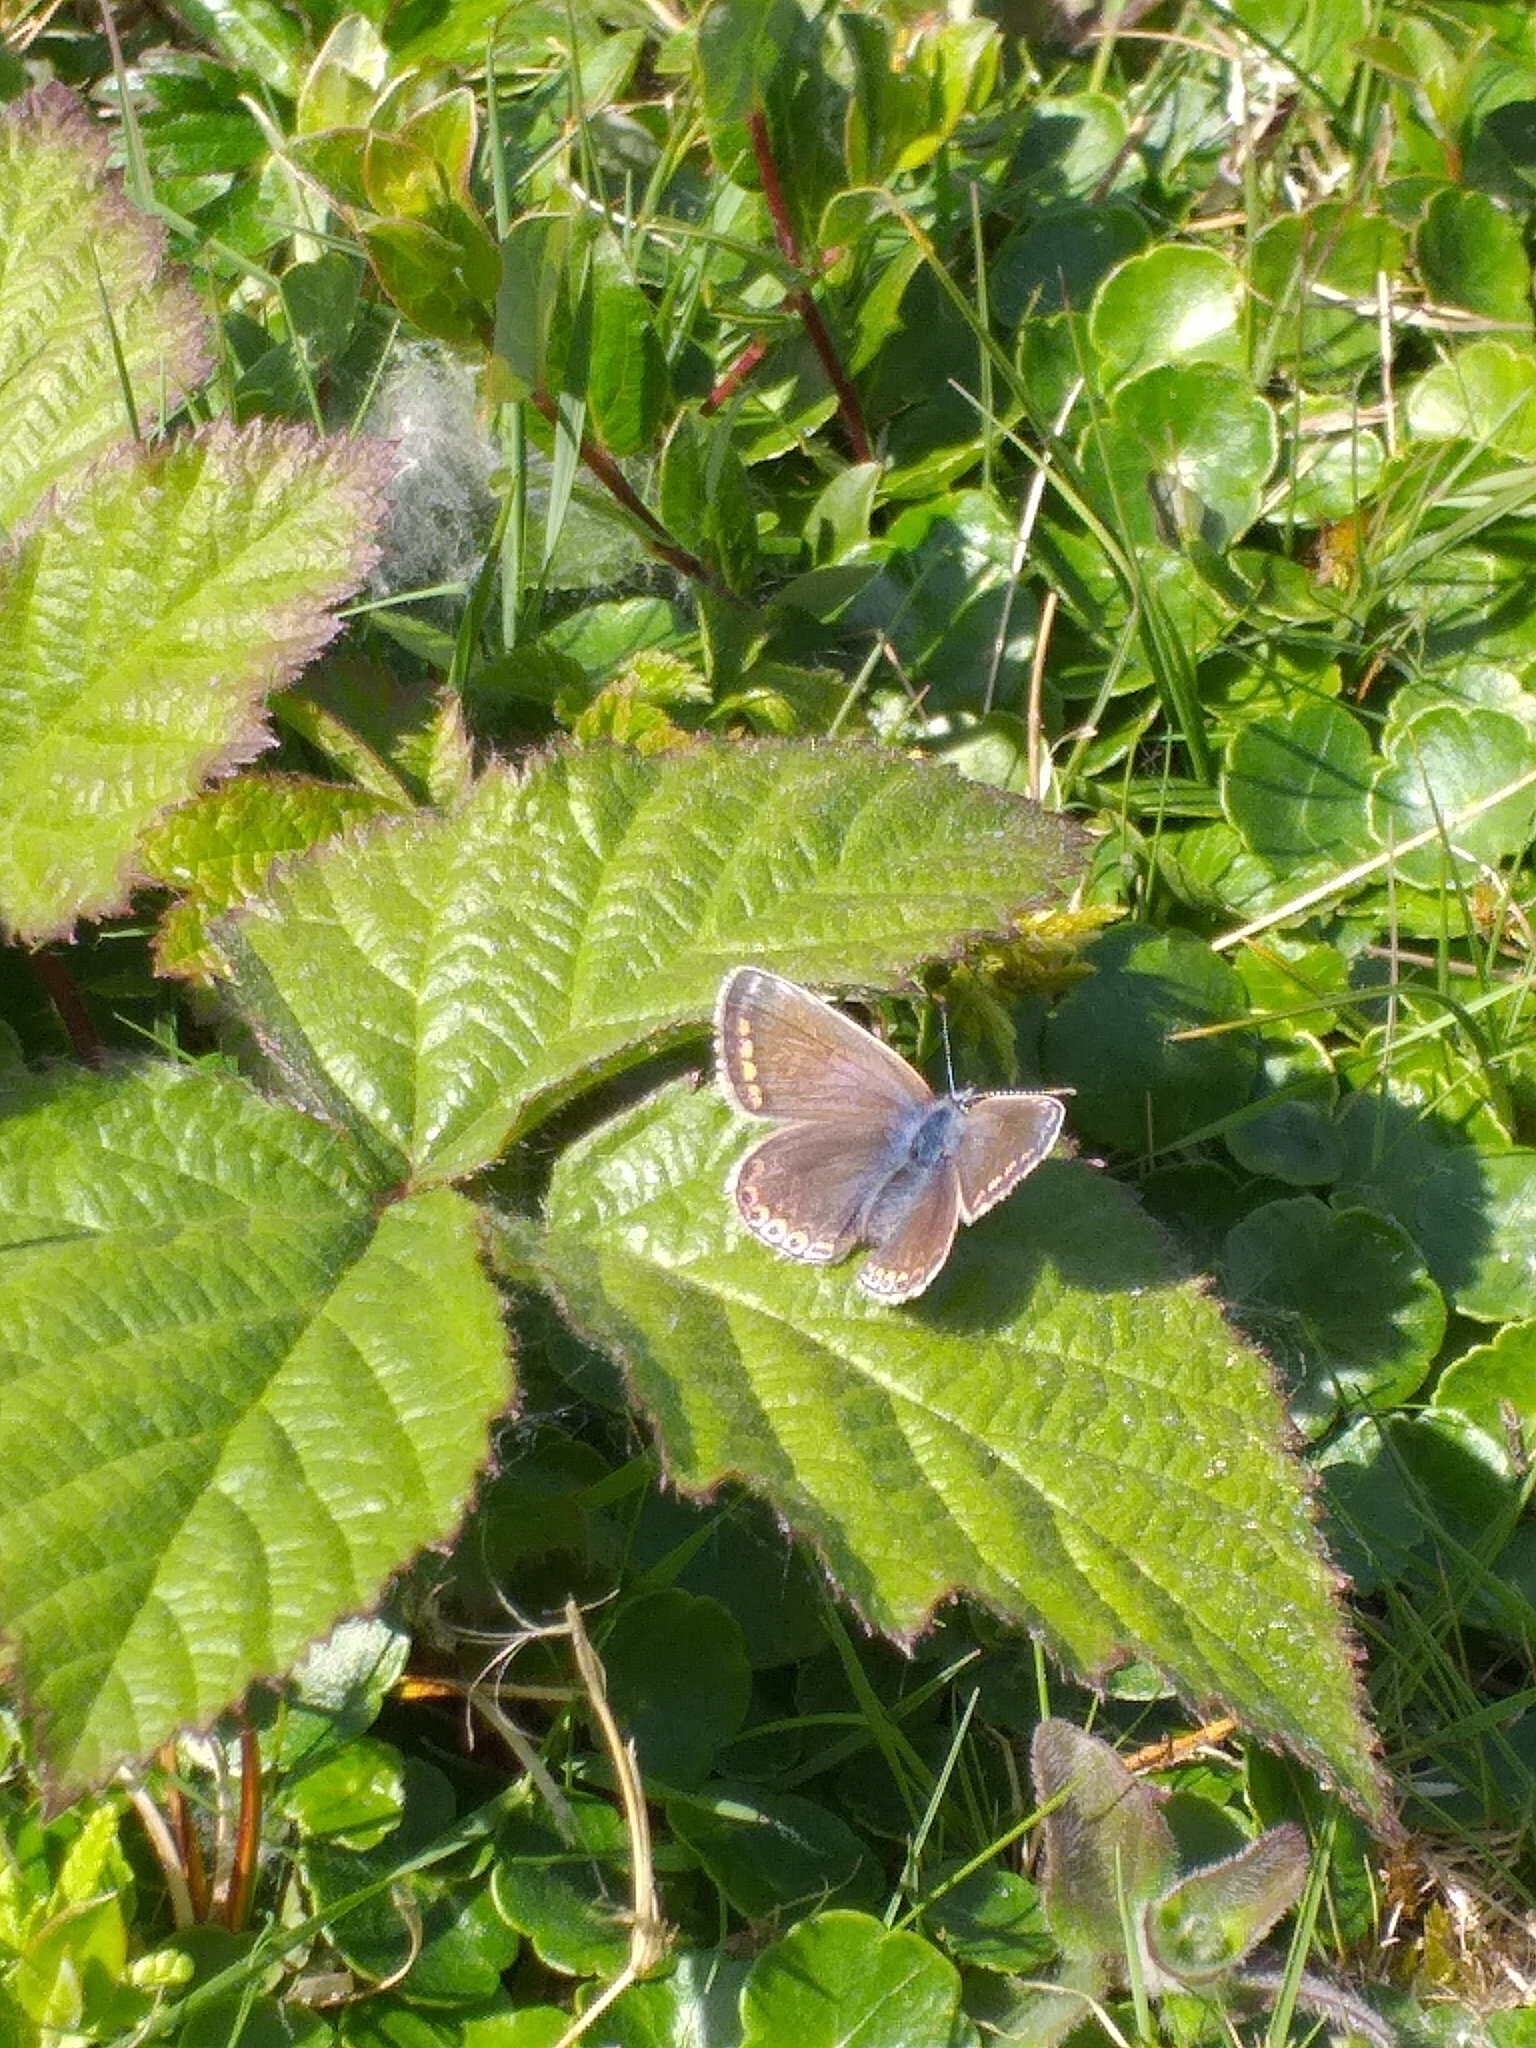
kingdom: Animalia
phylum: Arthropoda
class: Insecta
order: Lepidoptera
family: Lycaenidae
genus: Polyommatus
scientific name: Polyommatus icarus
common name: Common blue
